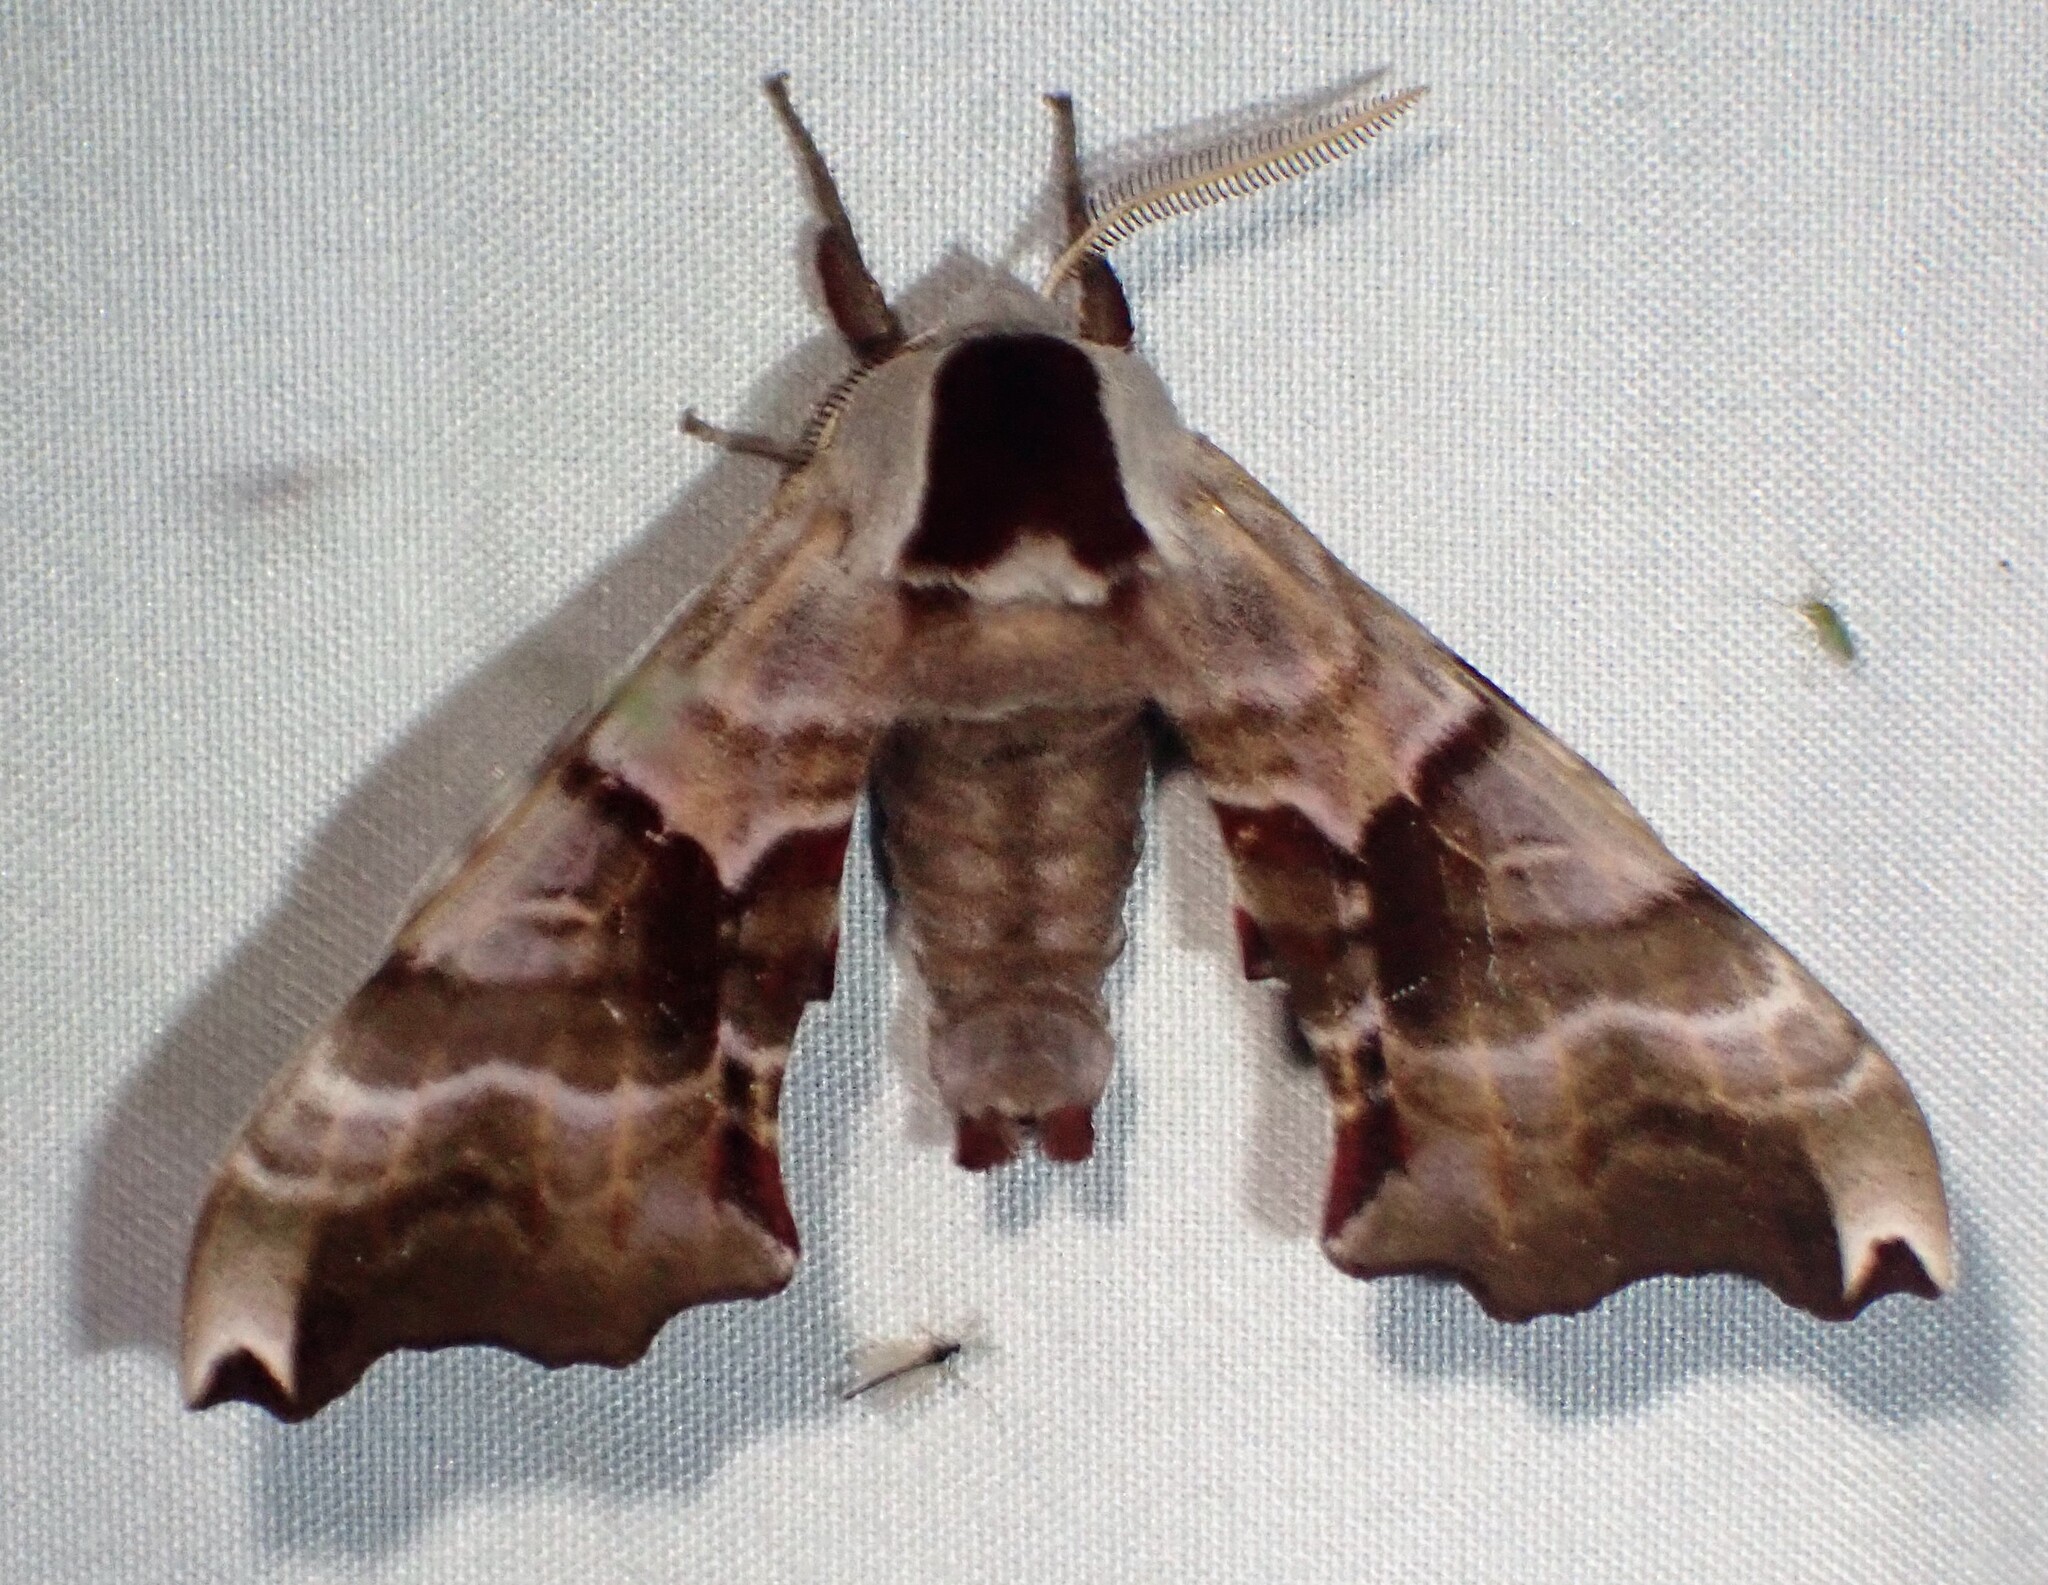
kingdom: Animalia
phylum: Arthropoda
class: Insecta
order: Lepidoptera
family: Sphingidae
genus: Smerinthus
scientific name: Smerinthus jamaicensis
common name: Twin spotted sphinx
